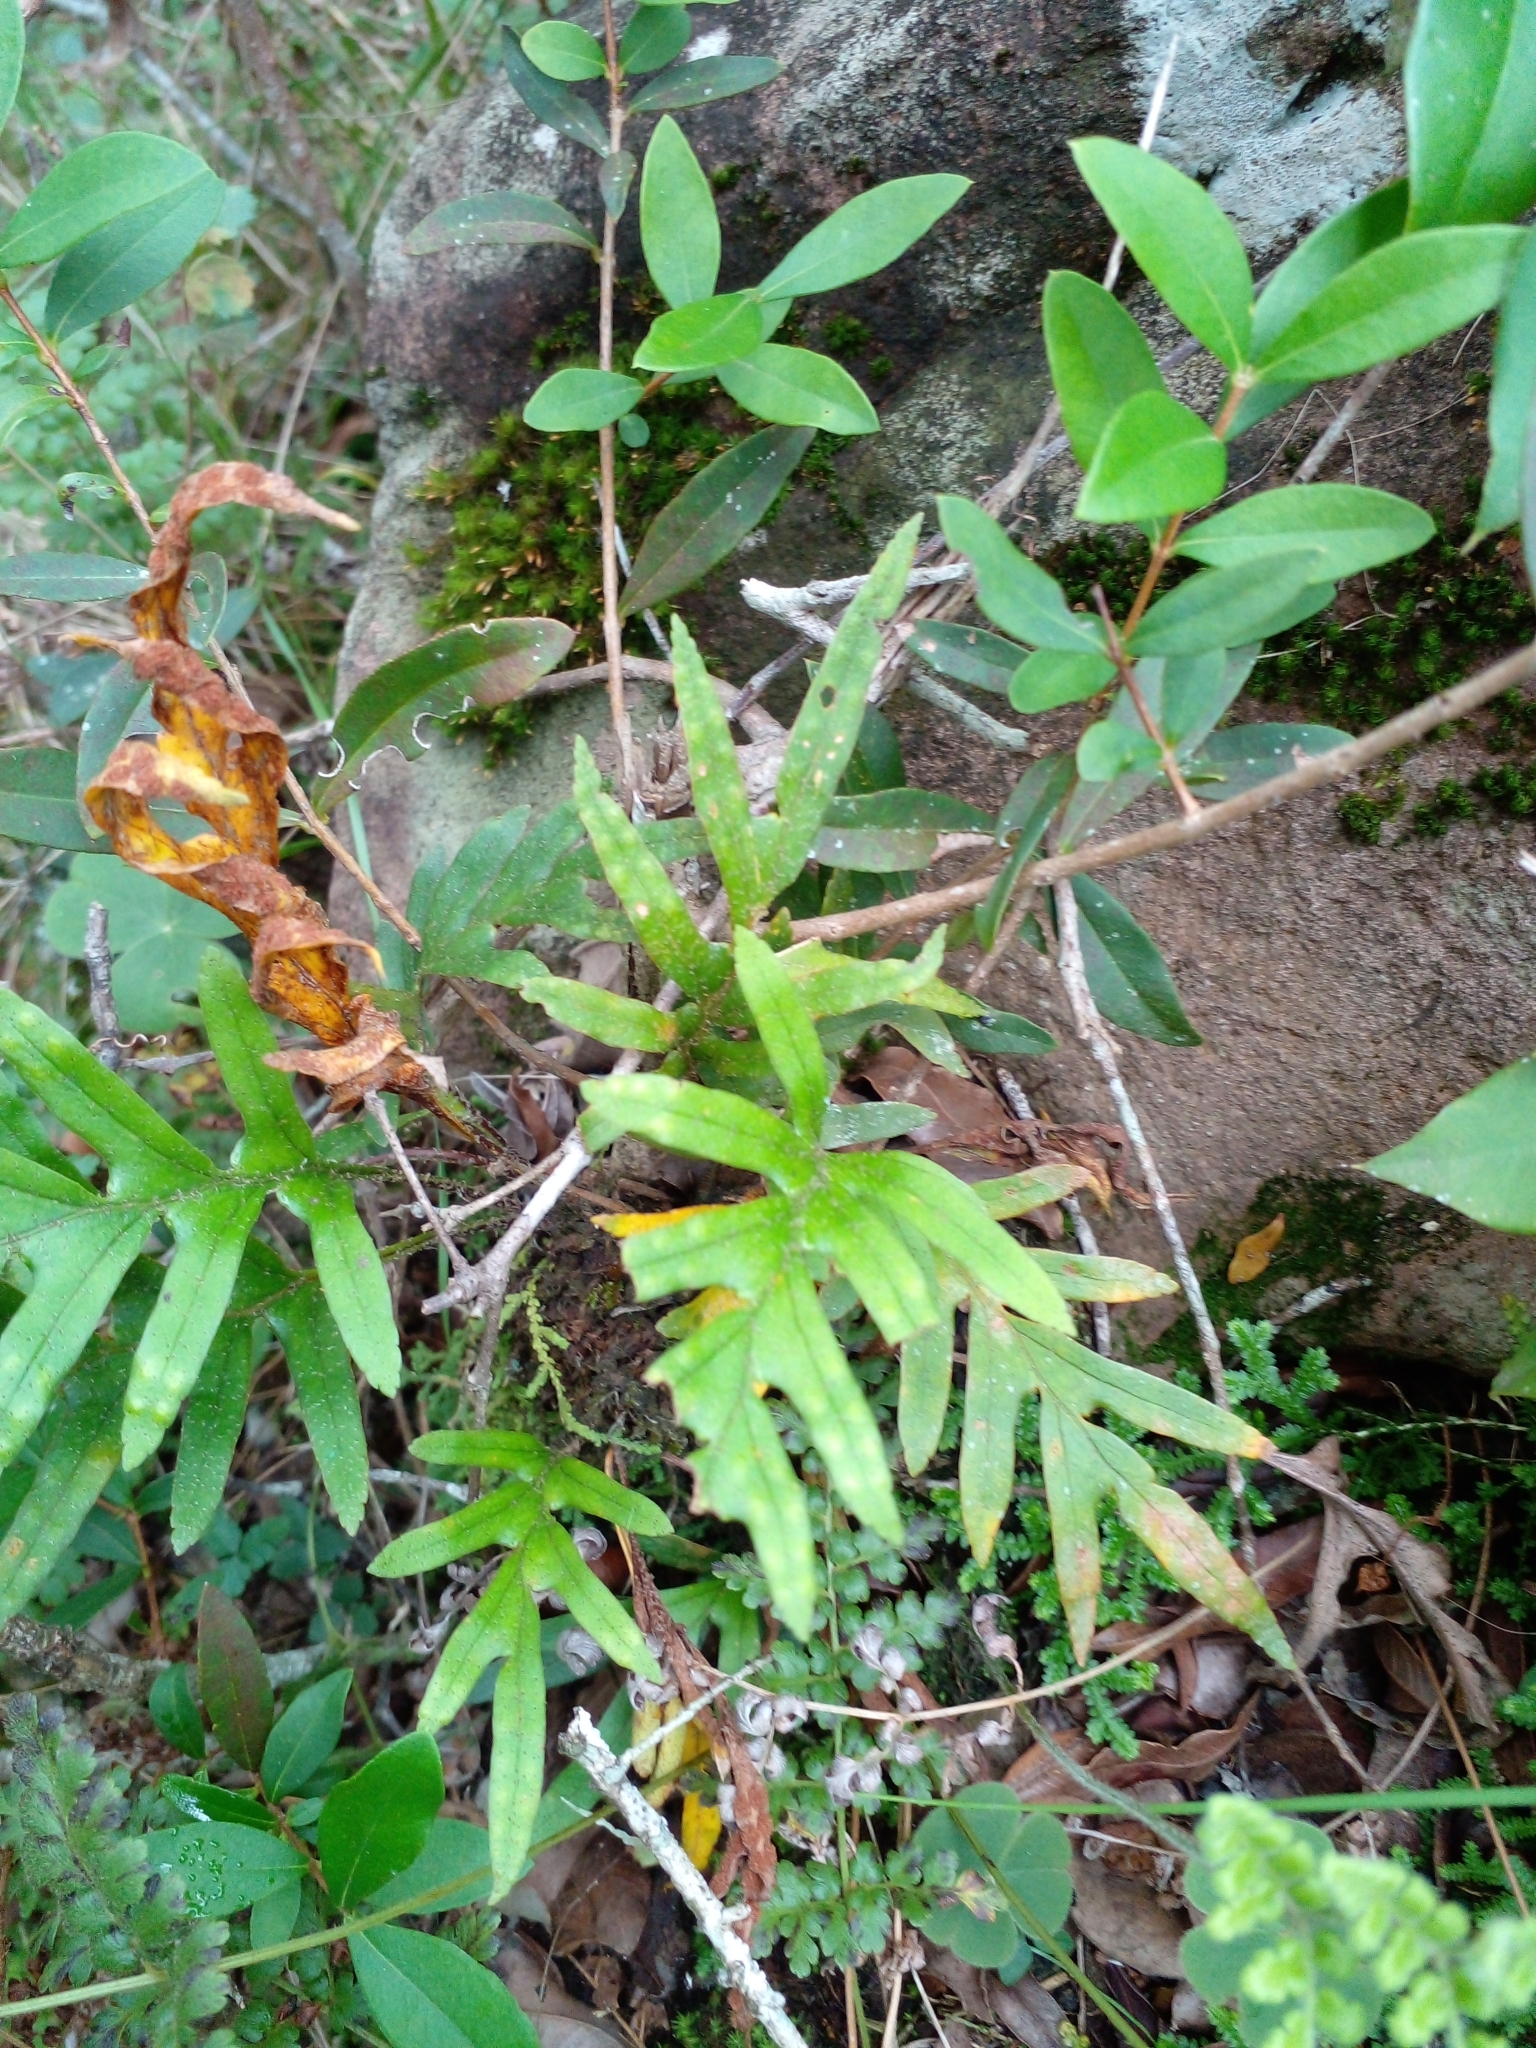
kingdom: Plantae
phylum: Tracheophyta
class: Polypodiopsida
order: Polypodiales
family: Polypodiaceae
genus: Pleopeltis
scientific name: Pleopeltis pleopeltifolia
